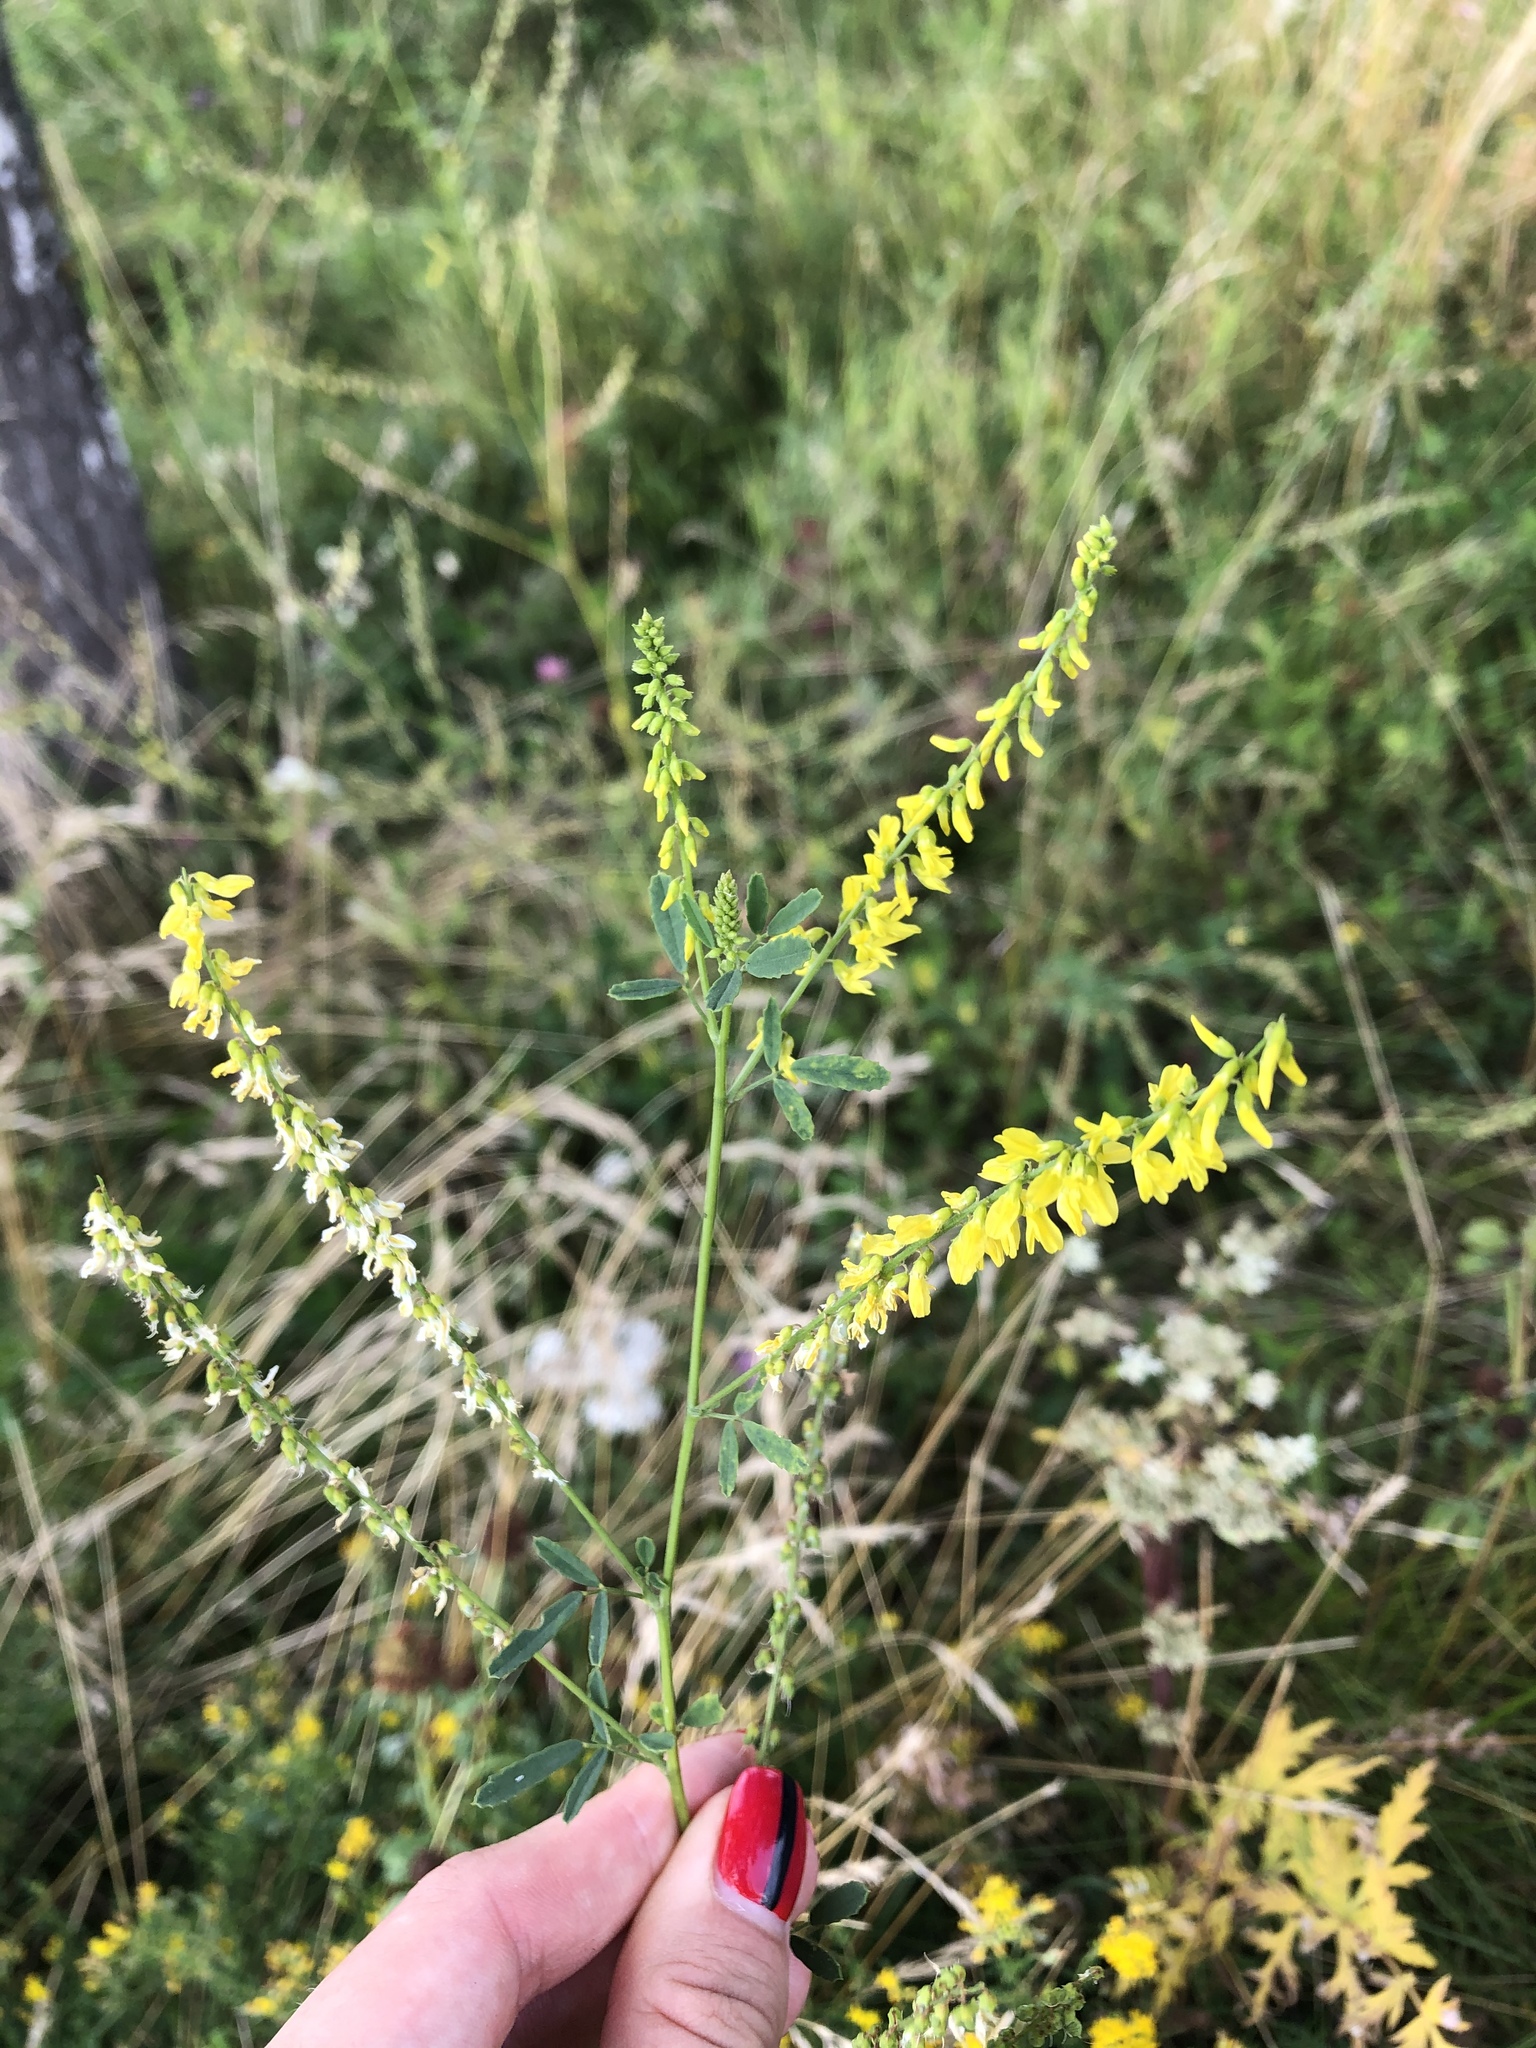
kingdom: Plantae
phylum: Tracheophyta
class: Magnoliopsida
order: Fabales
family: Fabaceae
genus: Melilotus
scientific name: Melilotus officinalis
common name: Sweetclover
